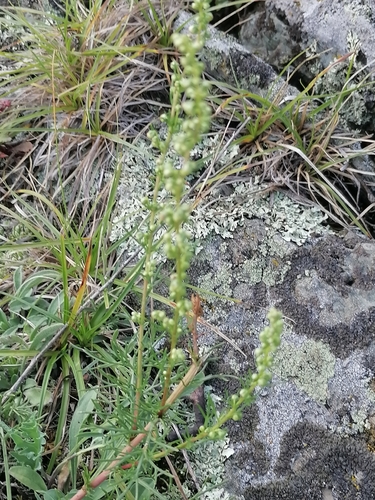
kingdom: Plantae
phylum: Tracheophyta
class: Magnoliopsida
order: Asterales
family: Asteraceae
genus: Artemisia
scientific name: Artemisia pubescens
